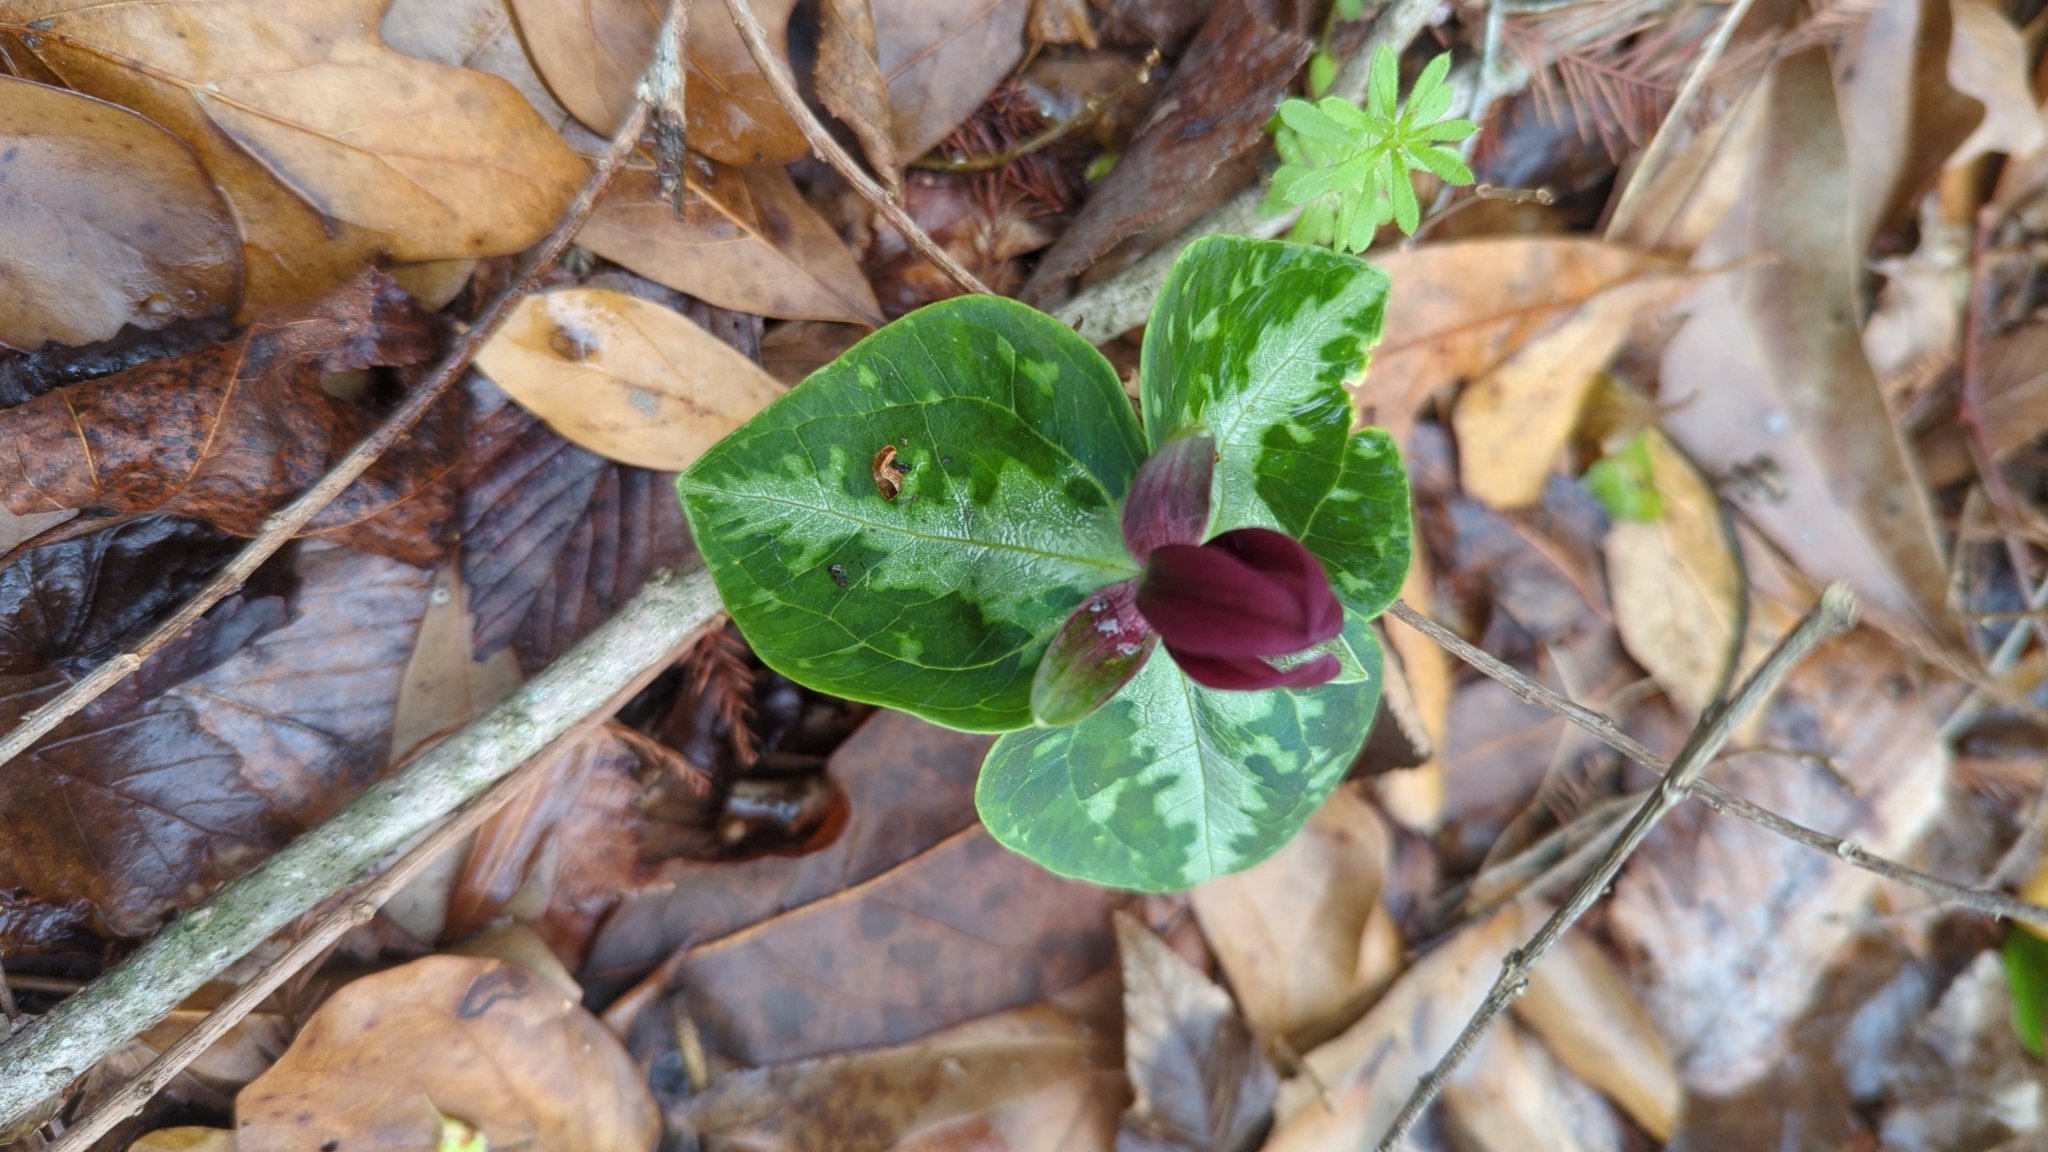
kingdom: Plantae
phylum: Tracheophyta
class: Liliopsida
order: Liliales
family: Melanthiaceae
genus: Trillium
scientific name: Trillium foetidissimum
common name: Mississippi river trillium
